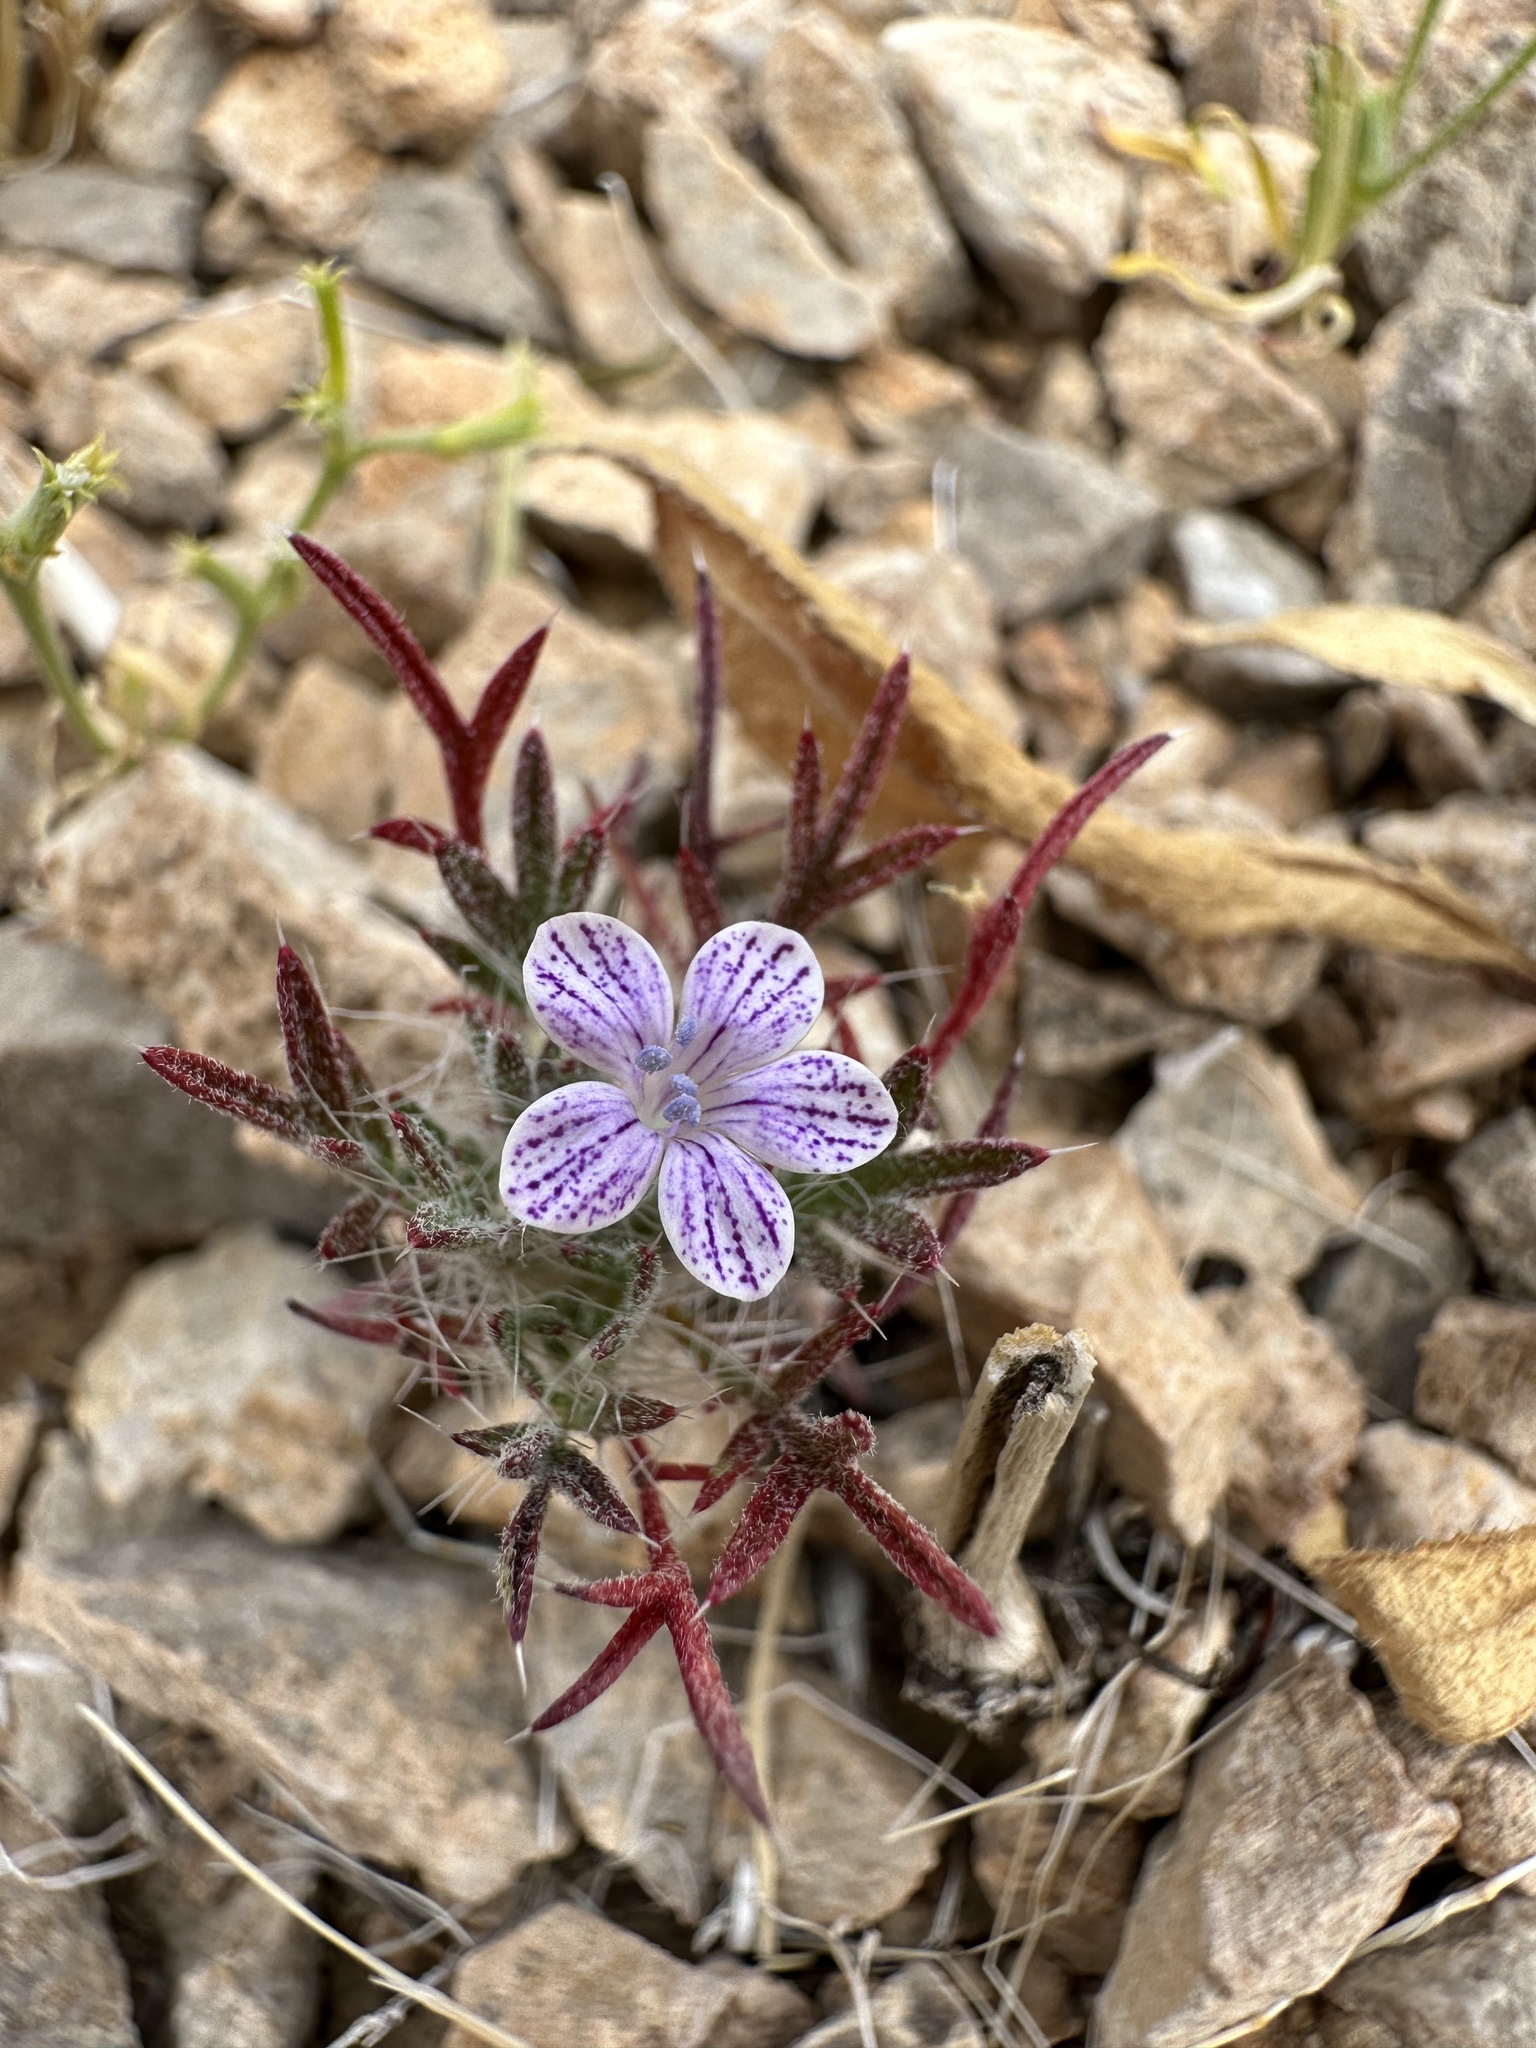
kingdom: Plantae
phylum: Tracheophyta
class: Magnoliopsida
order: Ericales
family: Polemoniaceae
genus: Langloisia
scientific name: Langloisia setosissima
